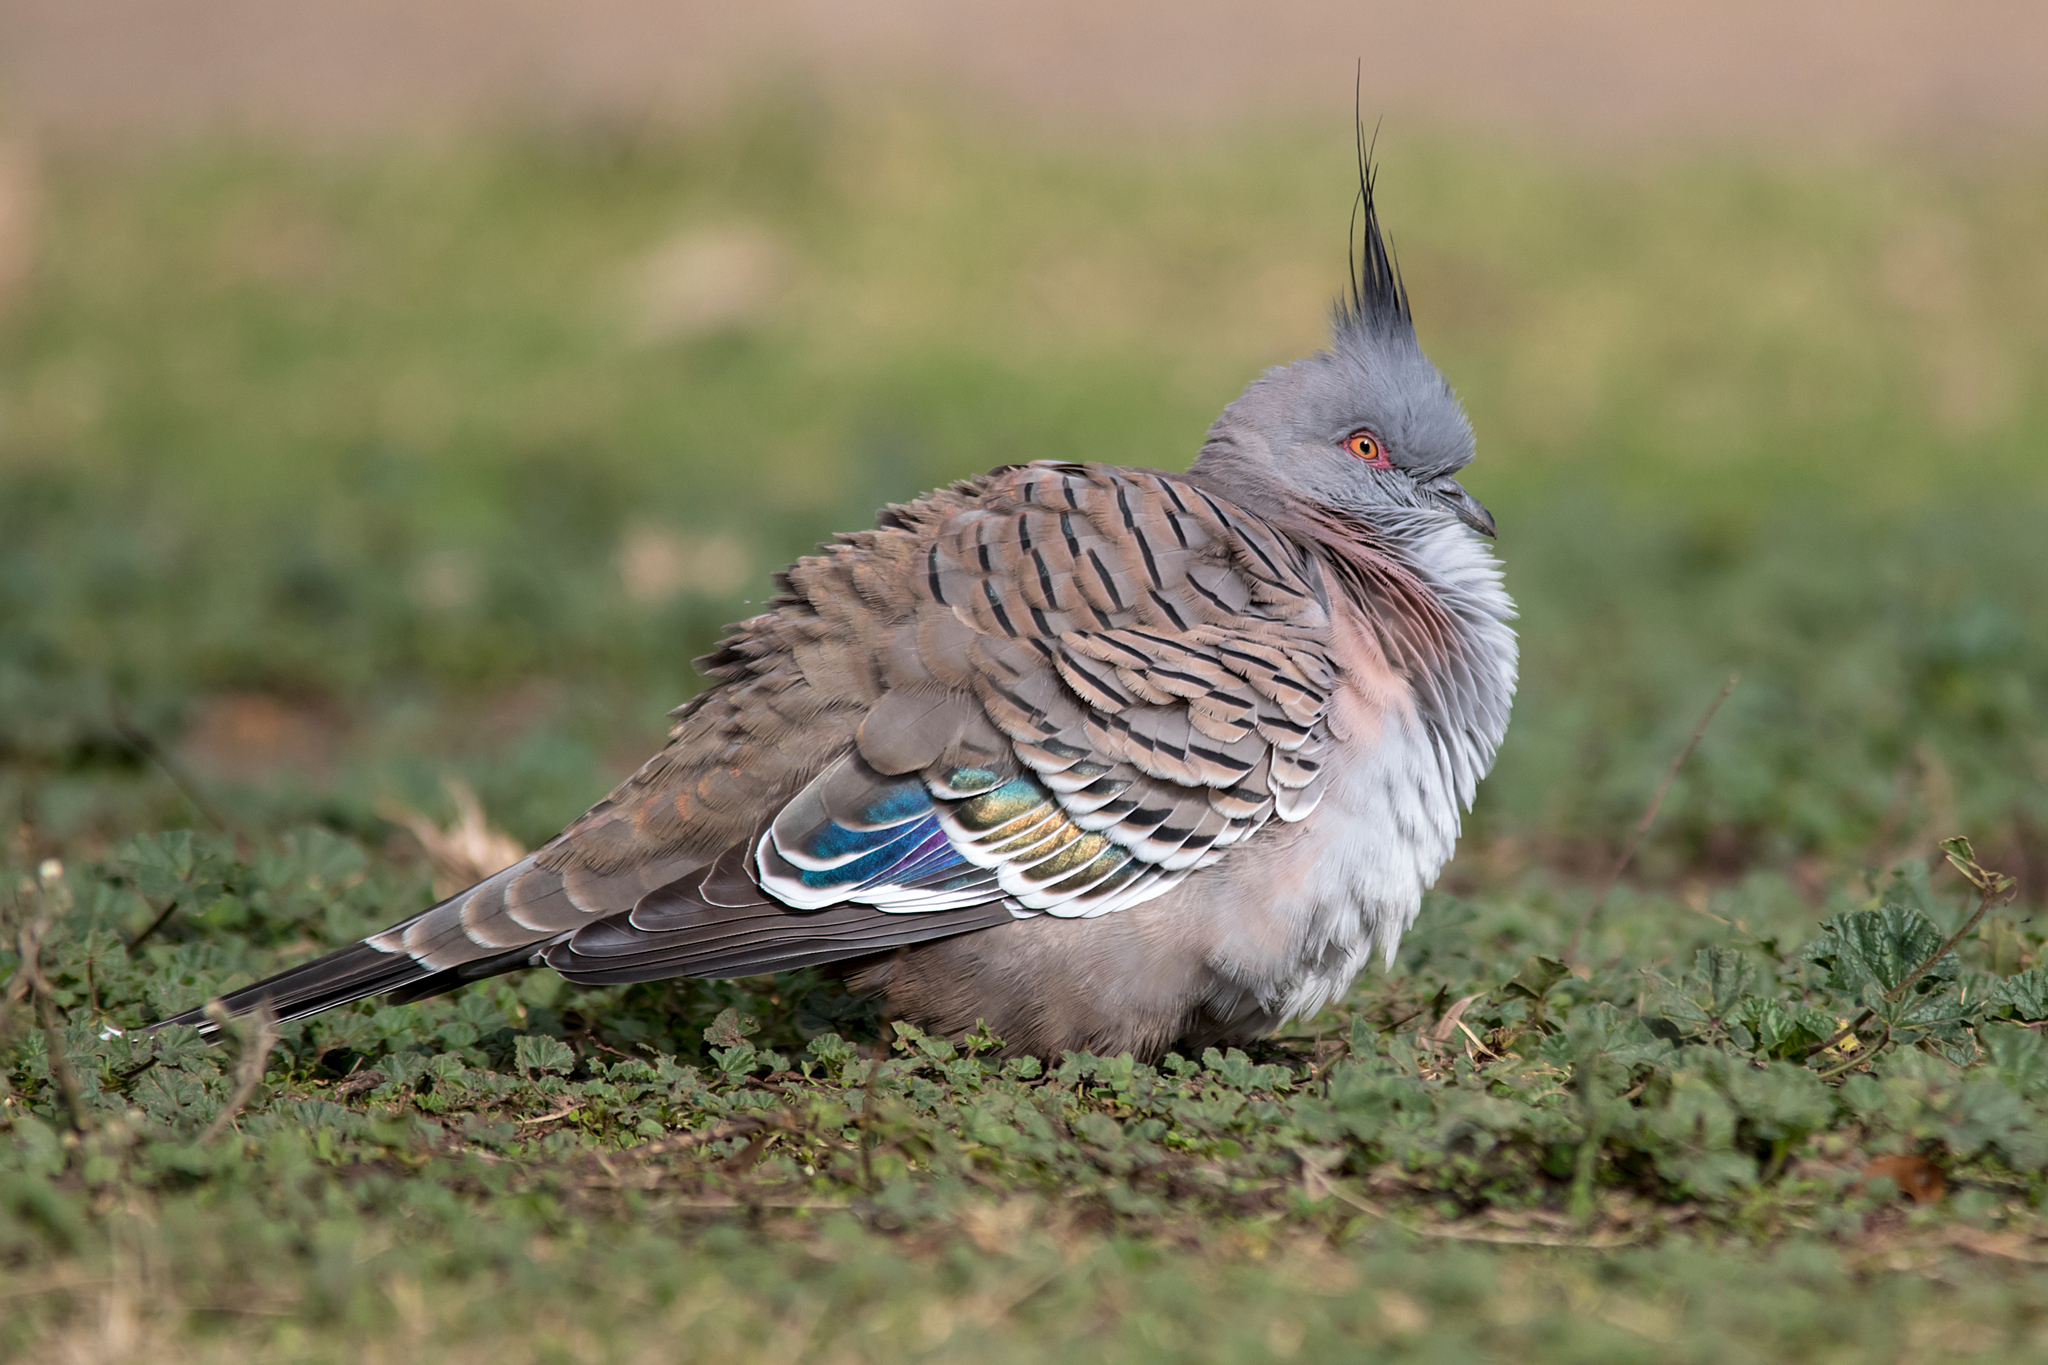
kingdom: Animalia
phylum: Chordata
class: Aves
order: Columbiformes
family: Columbidae
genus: Ocyphaps
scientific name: Ocyphaps lophotes
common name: Crested pigeon
